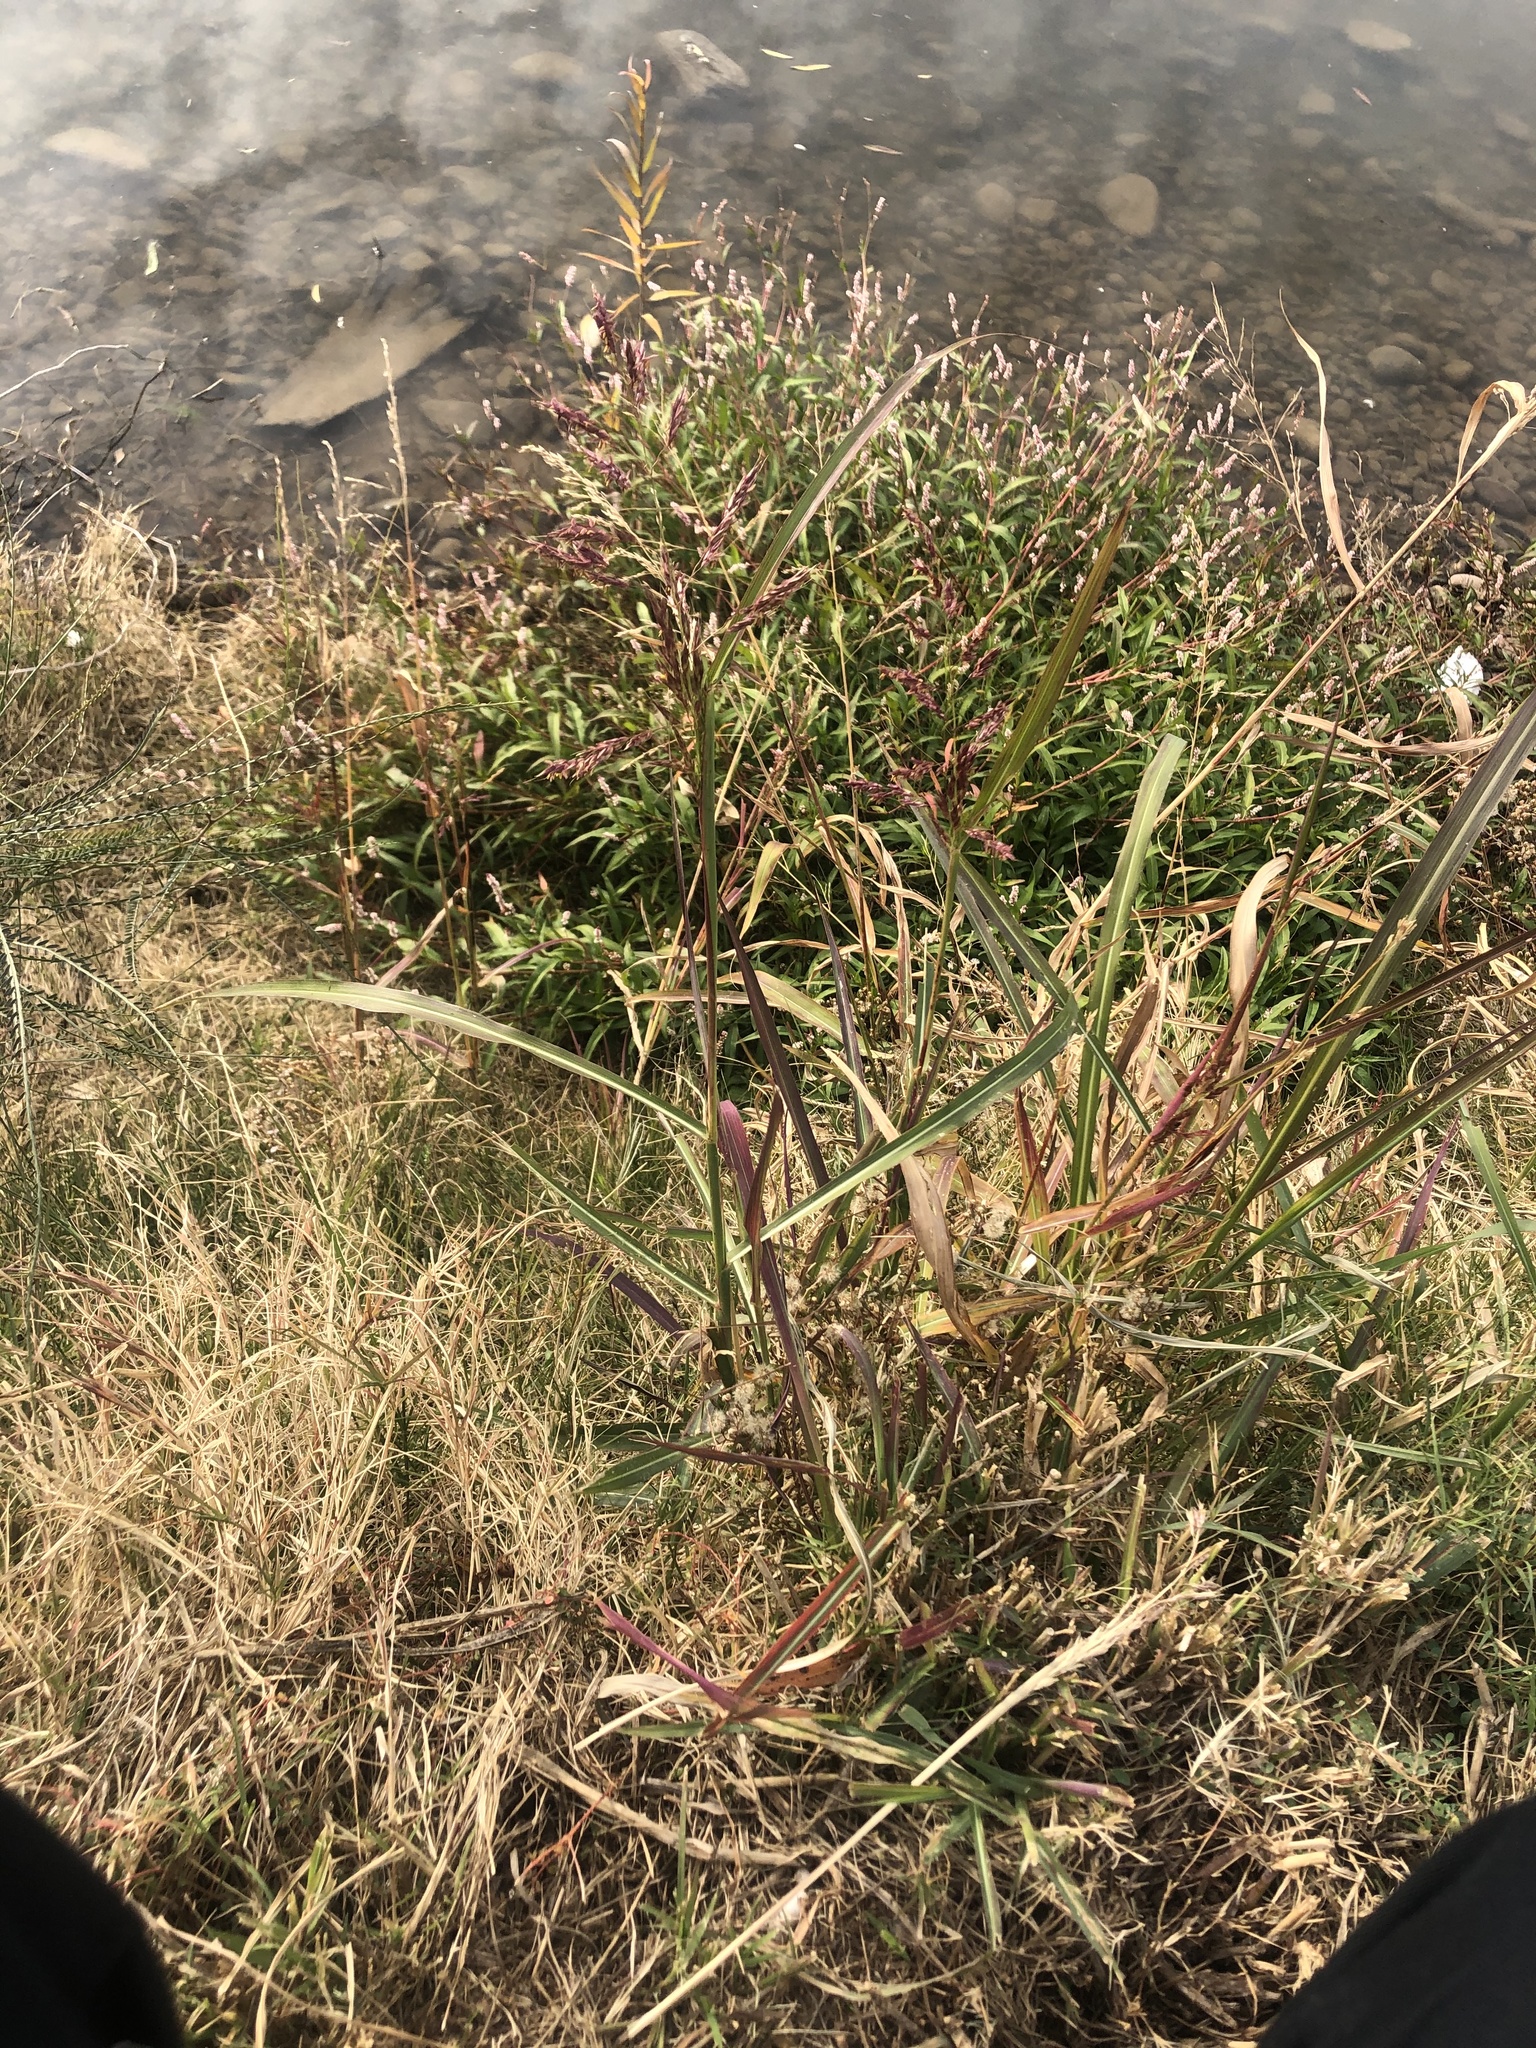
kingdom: Plantae
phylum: Tracheophyta
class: Liliopsida
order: Poales
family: Poaceae
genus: Sorghum
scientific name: Sorghum halepense
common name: Johnson-grass
